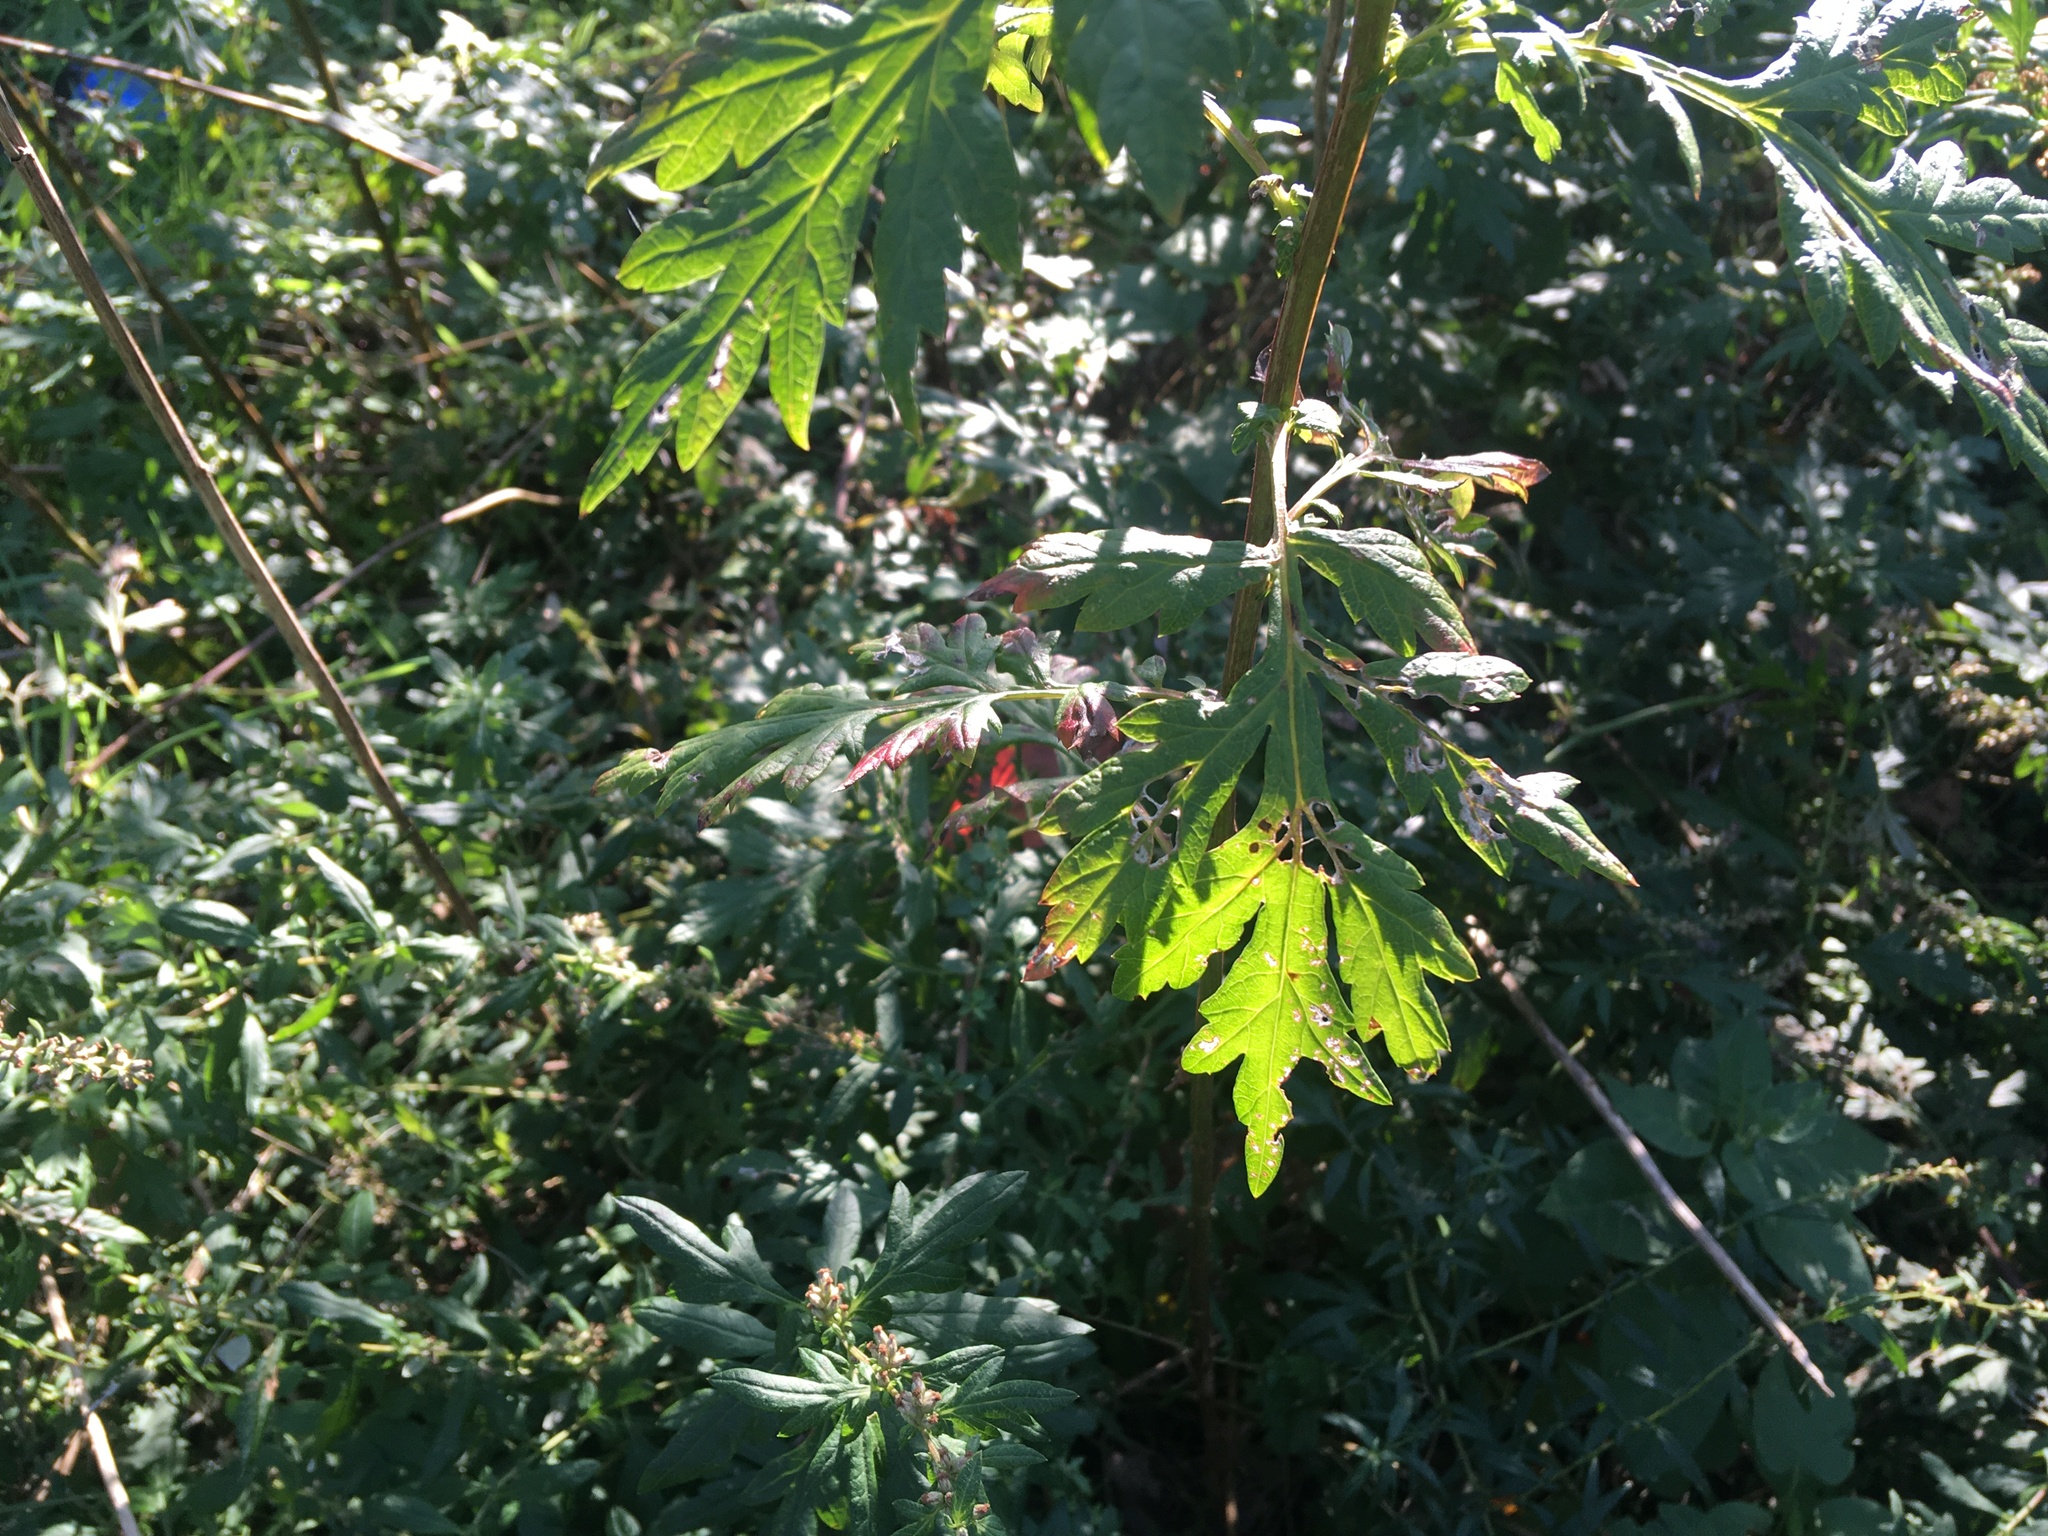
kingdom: Plantae
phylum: Tracheophyta
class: Magnoliopsida
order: Asterales
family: Asteraceae
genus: Artemisia
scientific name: Artemisia vulgaris
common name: Mugwort
